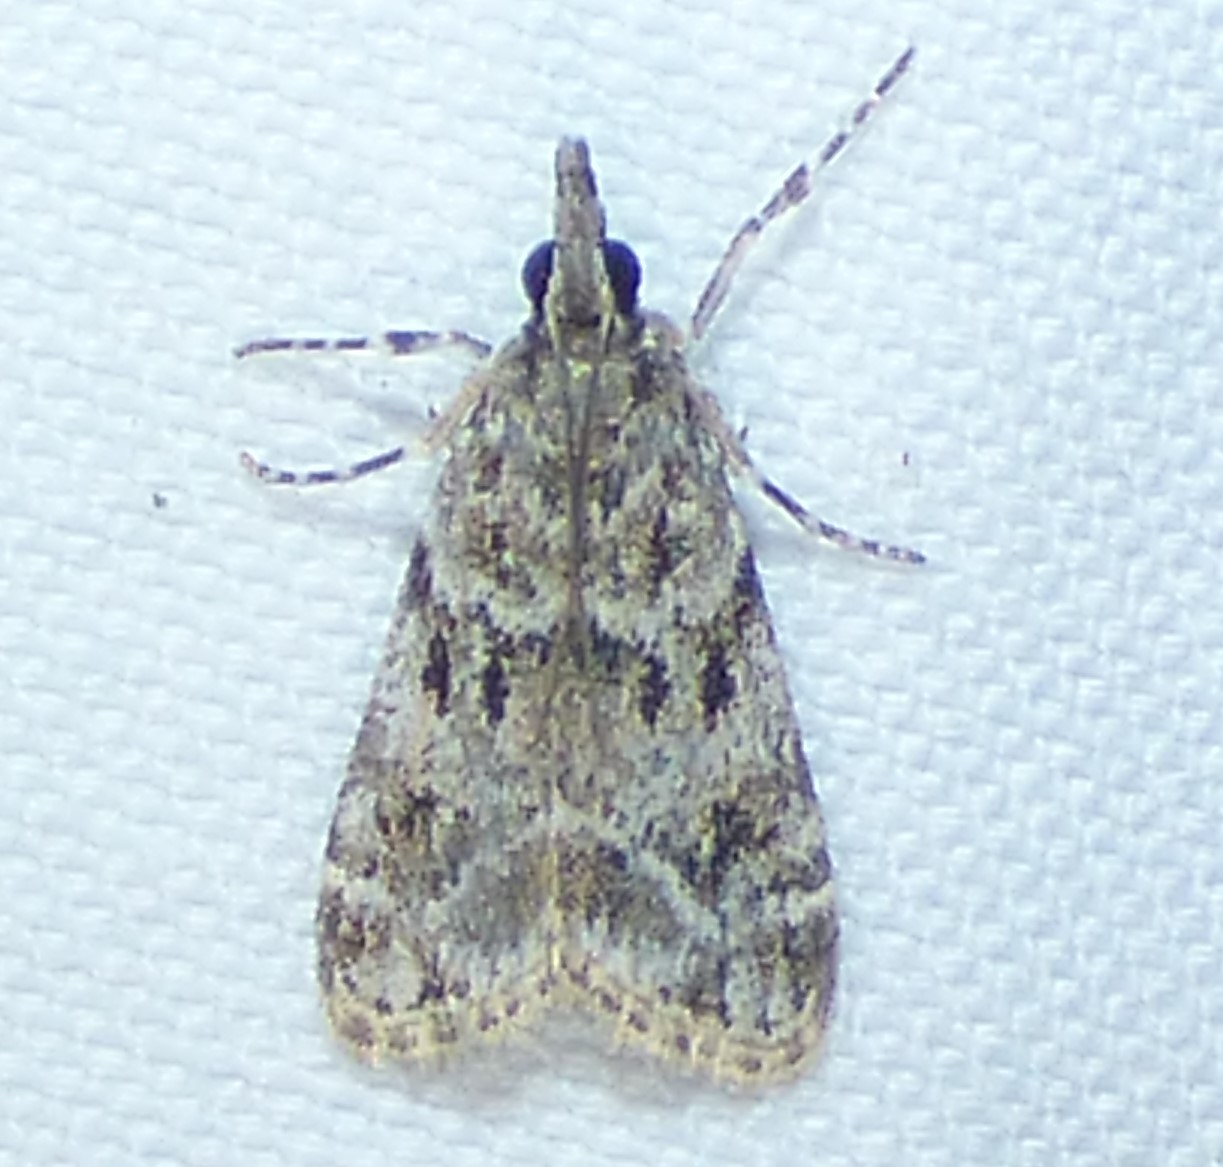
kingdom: Animalia
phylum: Arthropoda
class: Insecta
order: Lepidoptera
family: Crambidae
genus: Eudonia
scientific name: Eudonia heterosalis
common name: Mcdunnough's eudonia
